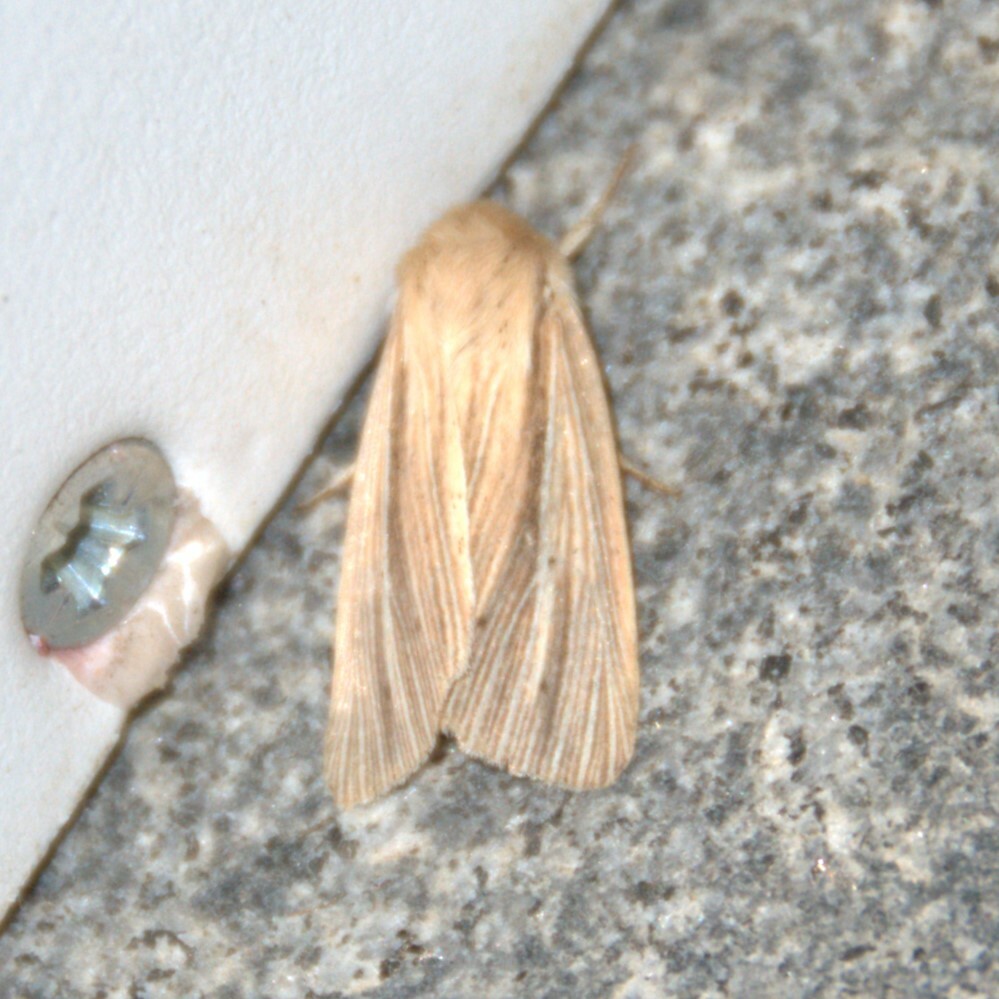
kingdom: Animalia
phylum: Arthropoda
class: Insecta
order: Lepidoptera
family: Noctuidae
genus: Mythimna
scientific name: Mythimna impura
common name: Smoky wainscot
